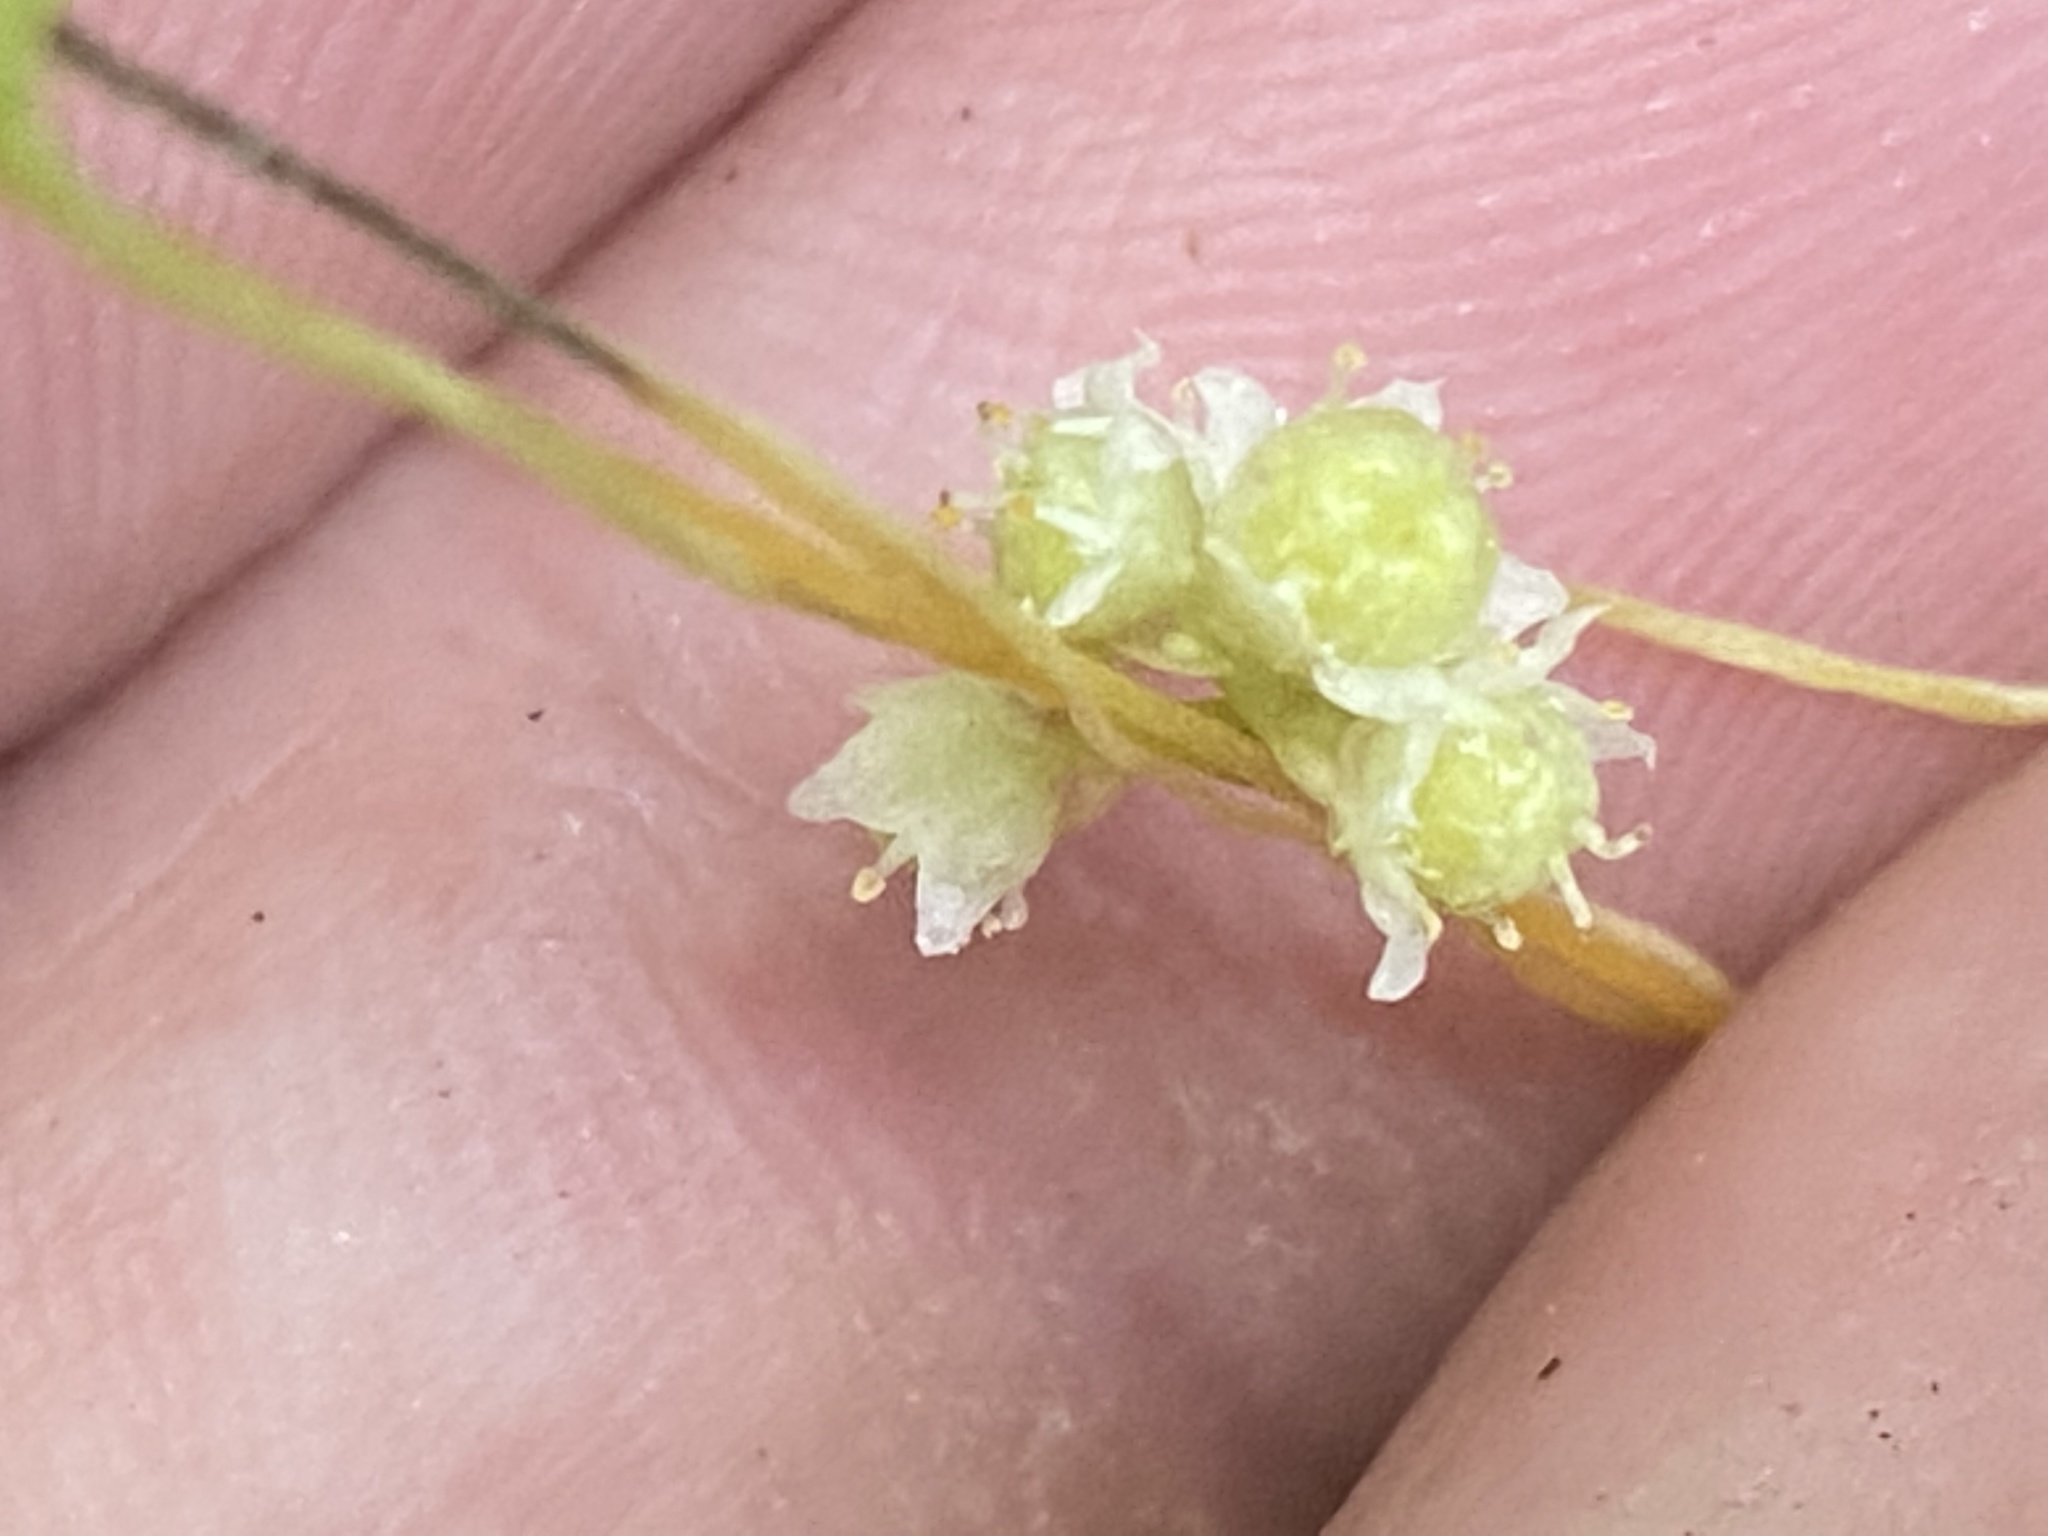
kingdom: Plantae
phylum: Tracheophyta
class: Magnoliopsida
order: Solanales
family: Convolvulaceae
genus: Cuscuta
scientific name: Cuscuta pentagona
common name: Fiveangled dodder
